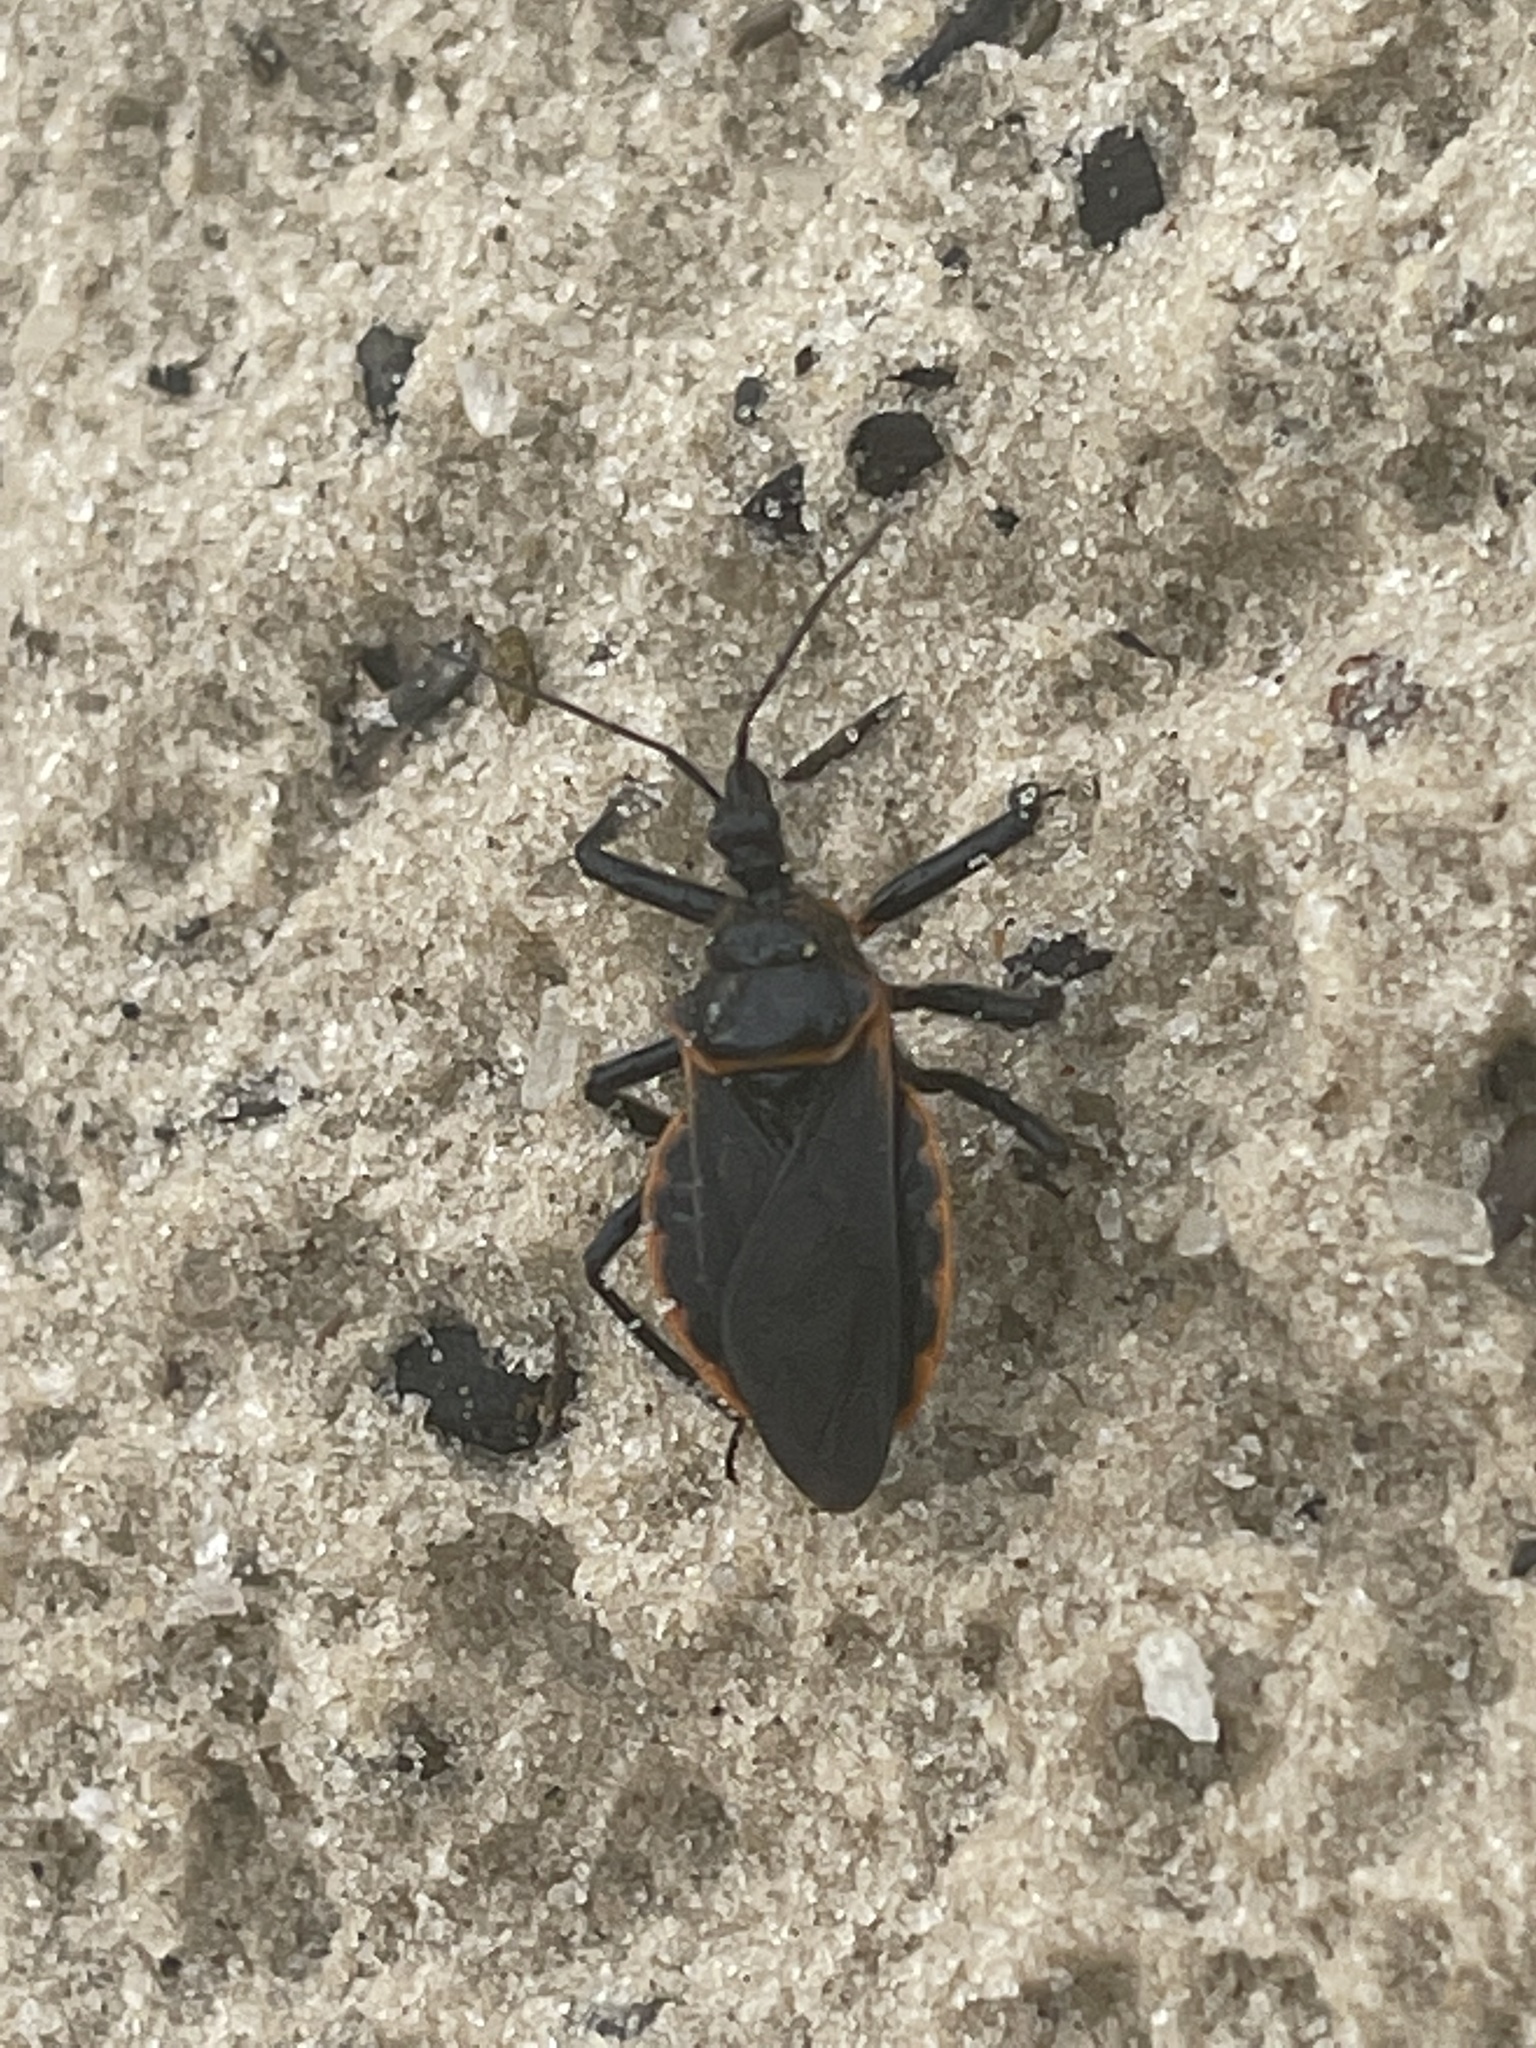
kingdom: Animalia
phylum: Arthropoda
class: Insecta
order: Hemiptera
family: Reduviidae
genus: Apiomerus
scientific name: Apiomerus crassipes
